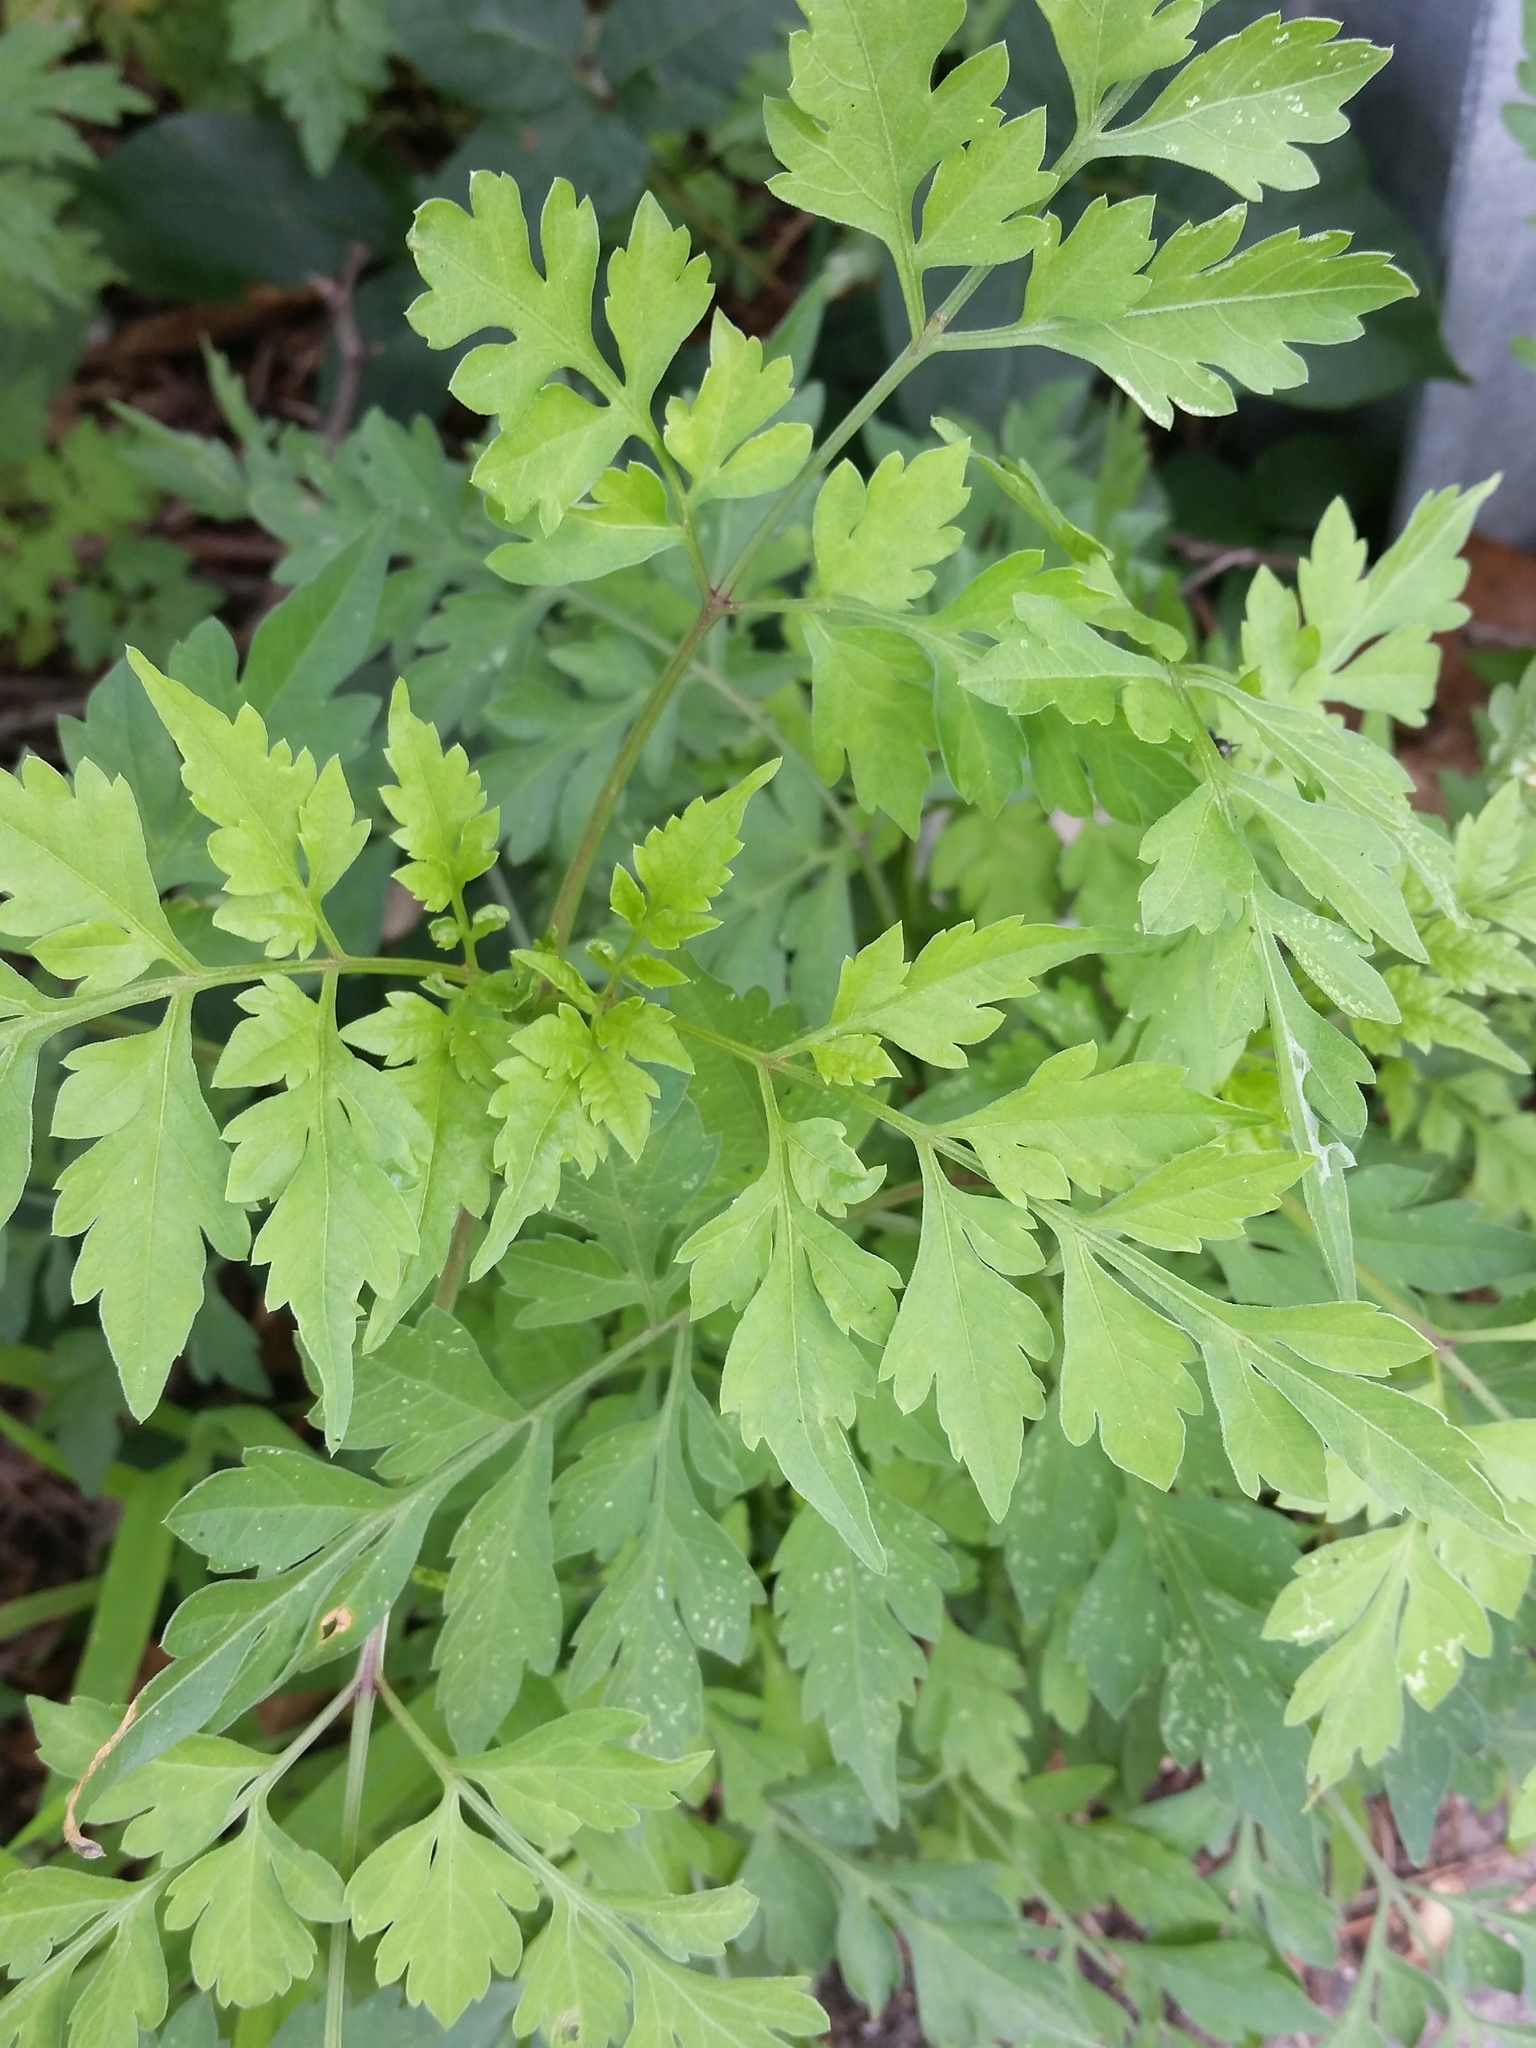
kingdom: Plantae
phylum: Tracheophyta
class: Magnoliopsida
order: Asterales
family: Asteraceae
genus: Bidens
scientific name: Bidens bipinnata
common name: Spanish-needles
